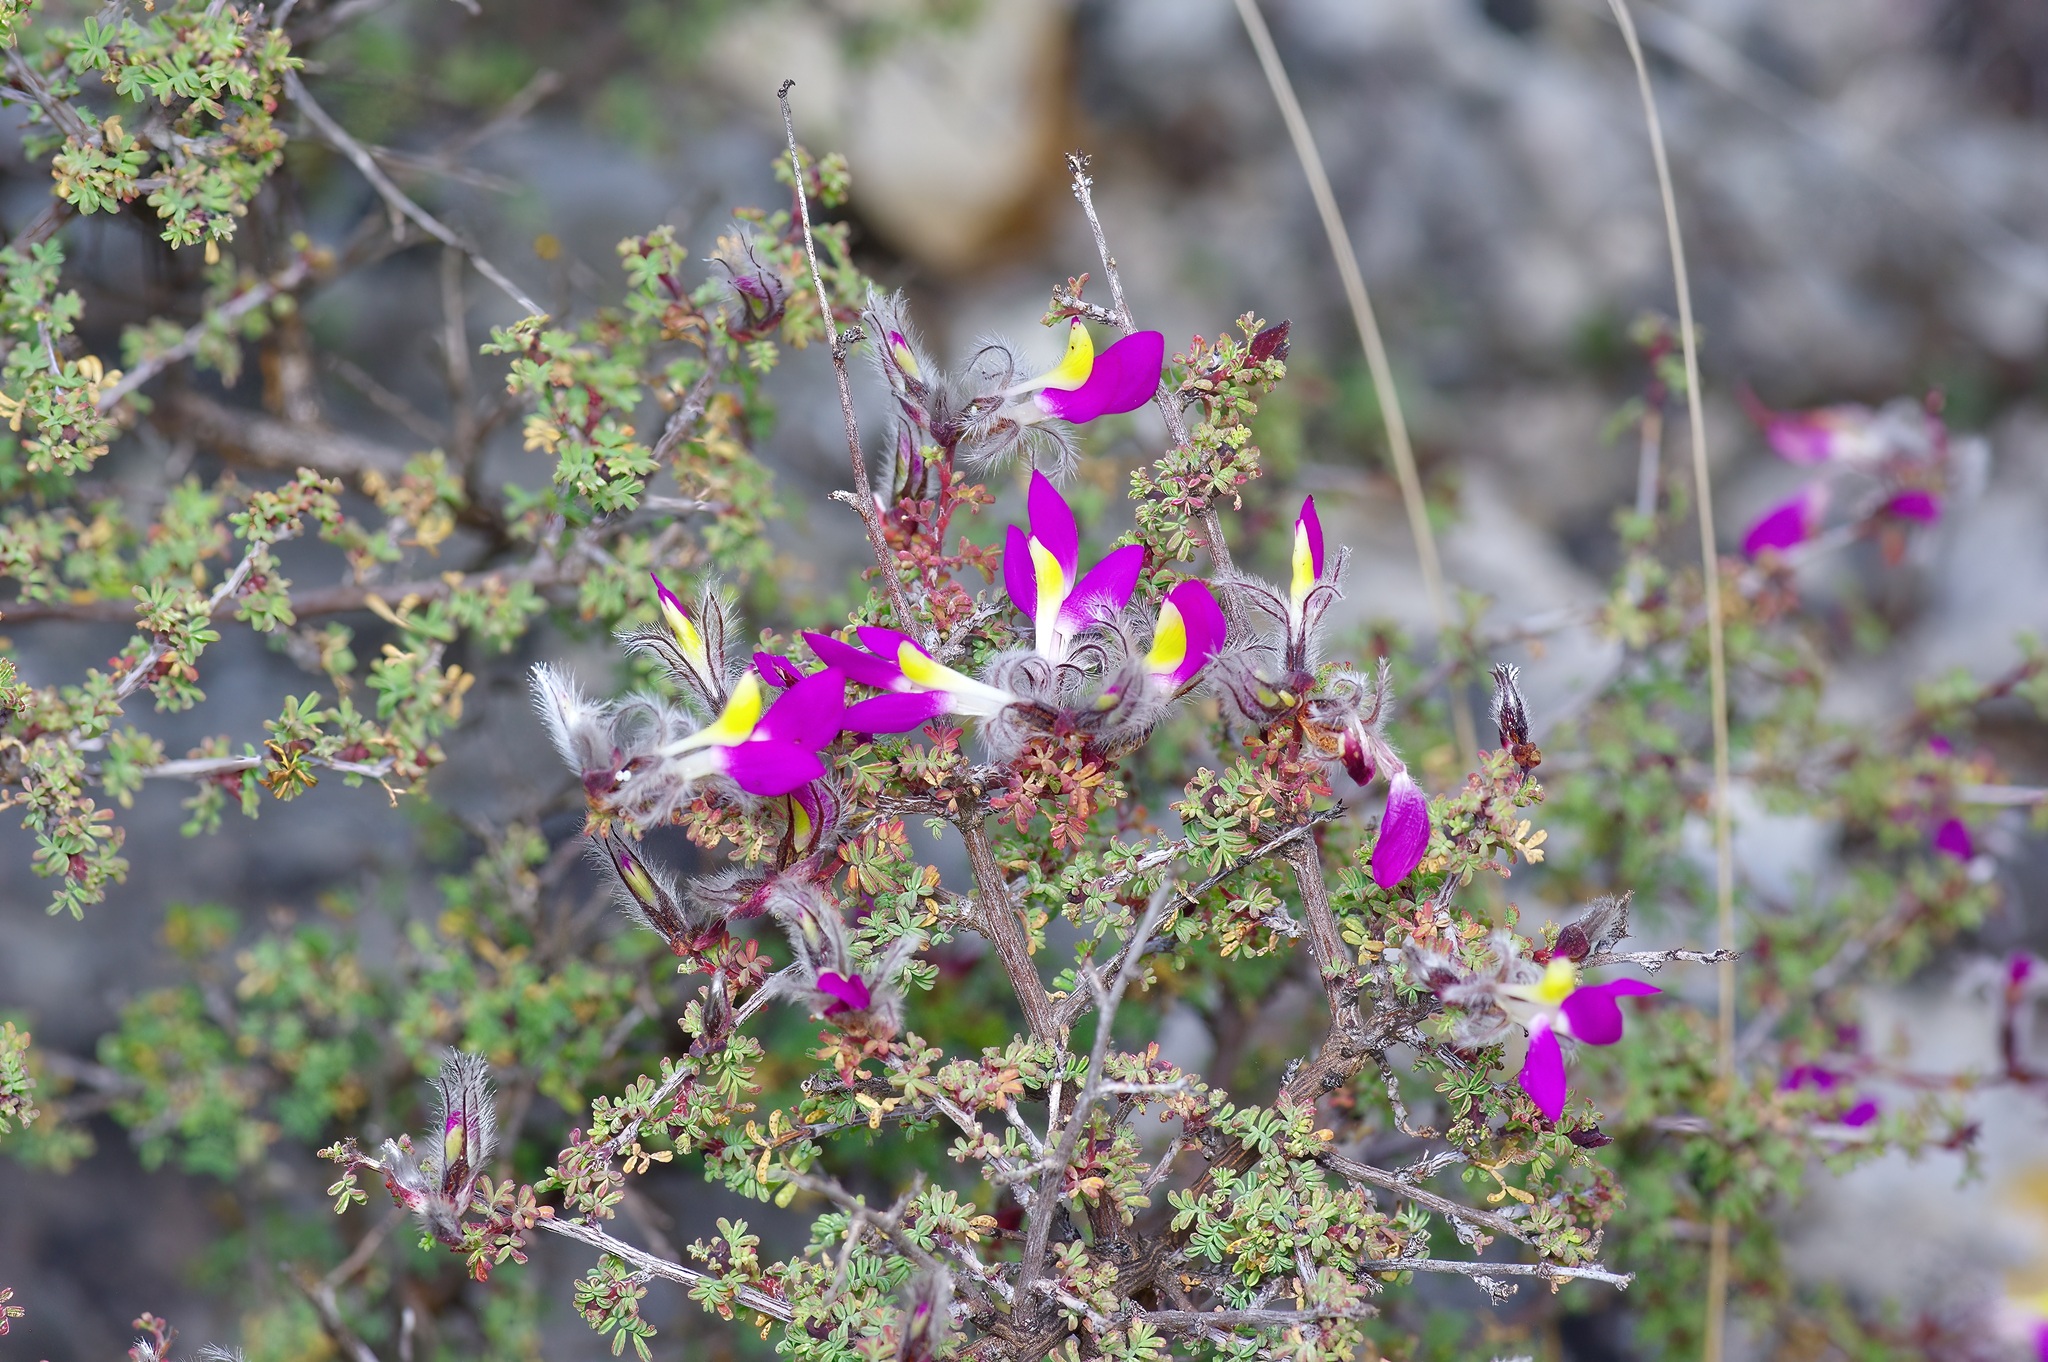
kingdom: Plantae
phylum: Tracheophyta
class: Magnoliopsida
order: Fabales
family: Fabaceae
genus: Dalea
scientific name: Dalea formosa
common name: Feather-plume dalea
